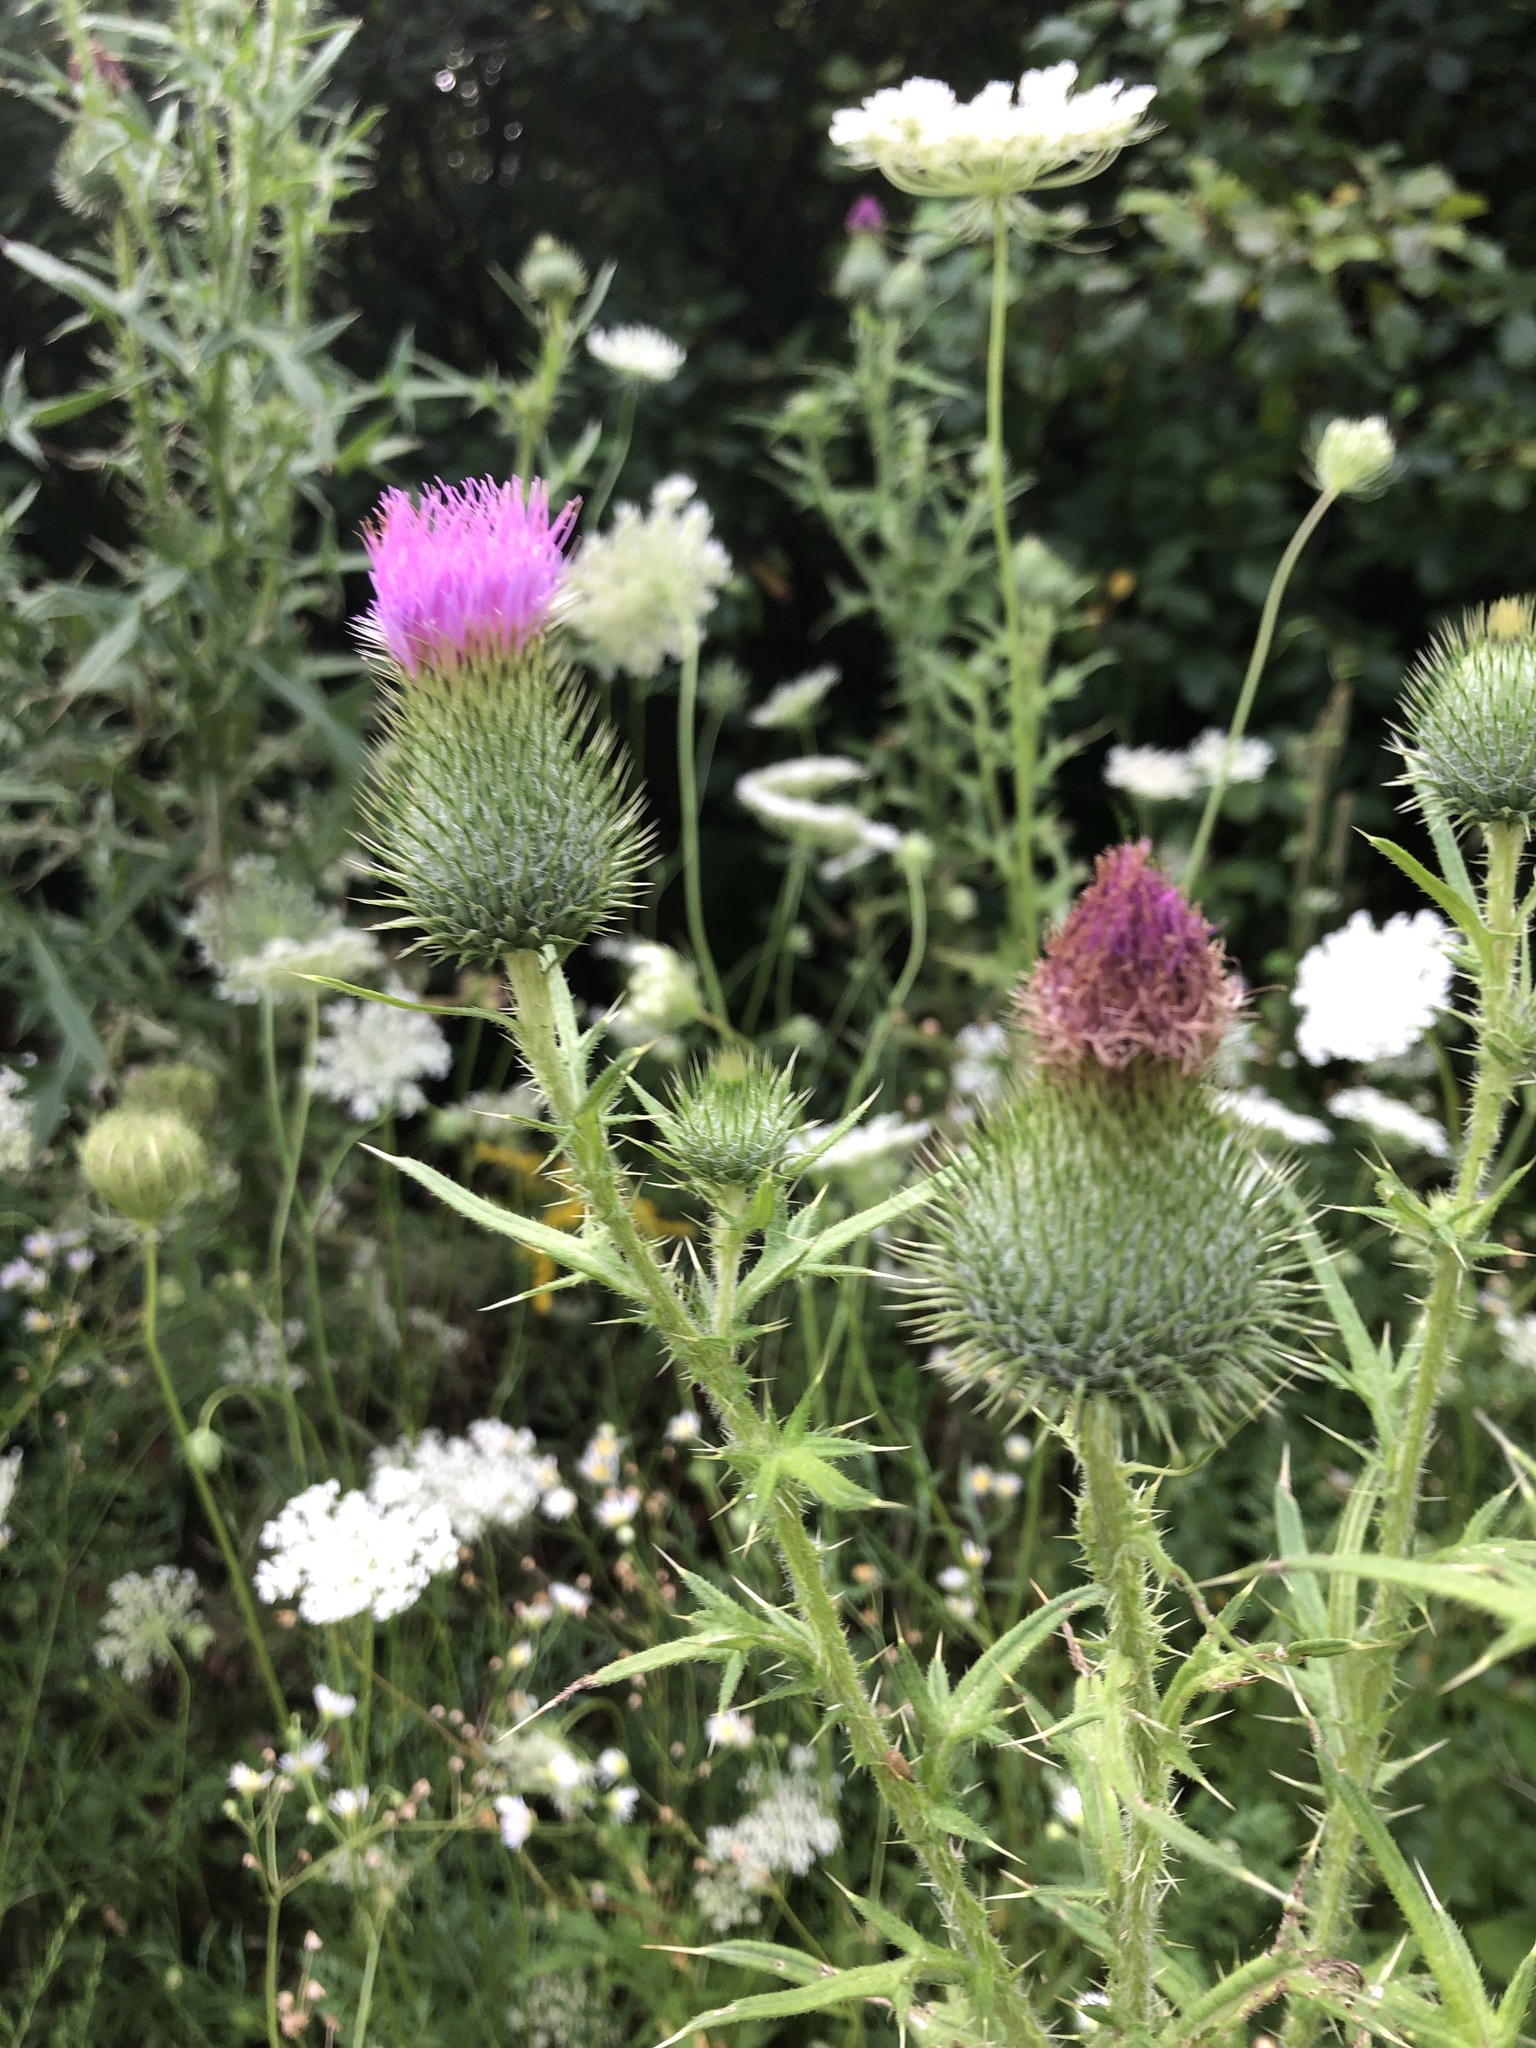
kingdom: Plantae
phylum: Tracheophyta
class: Magnoliopsida
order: Asterales
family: Asteraceae
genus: Cirsium
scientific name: Cirsium vulgare
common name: Bull thistle
